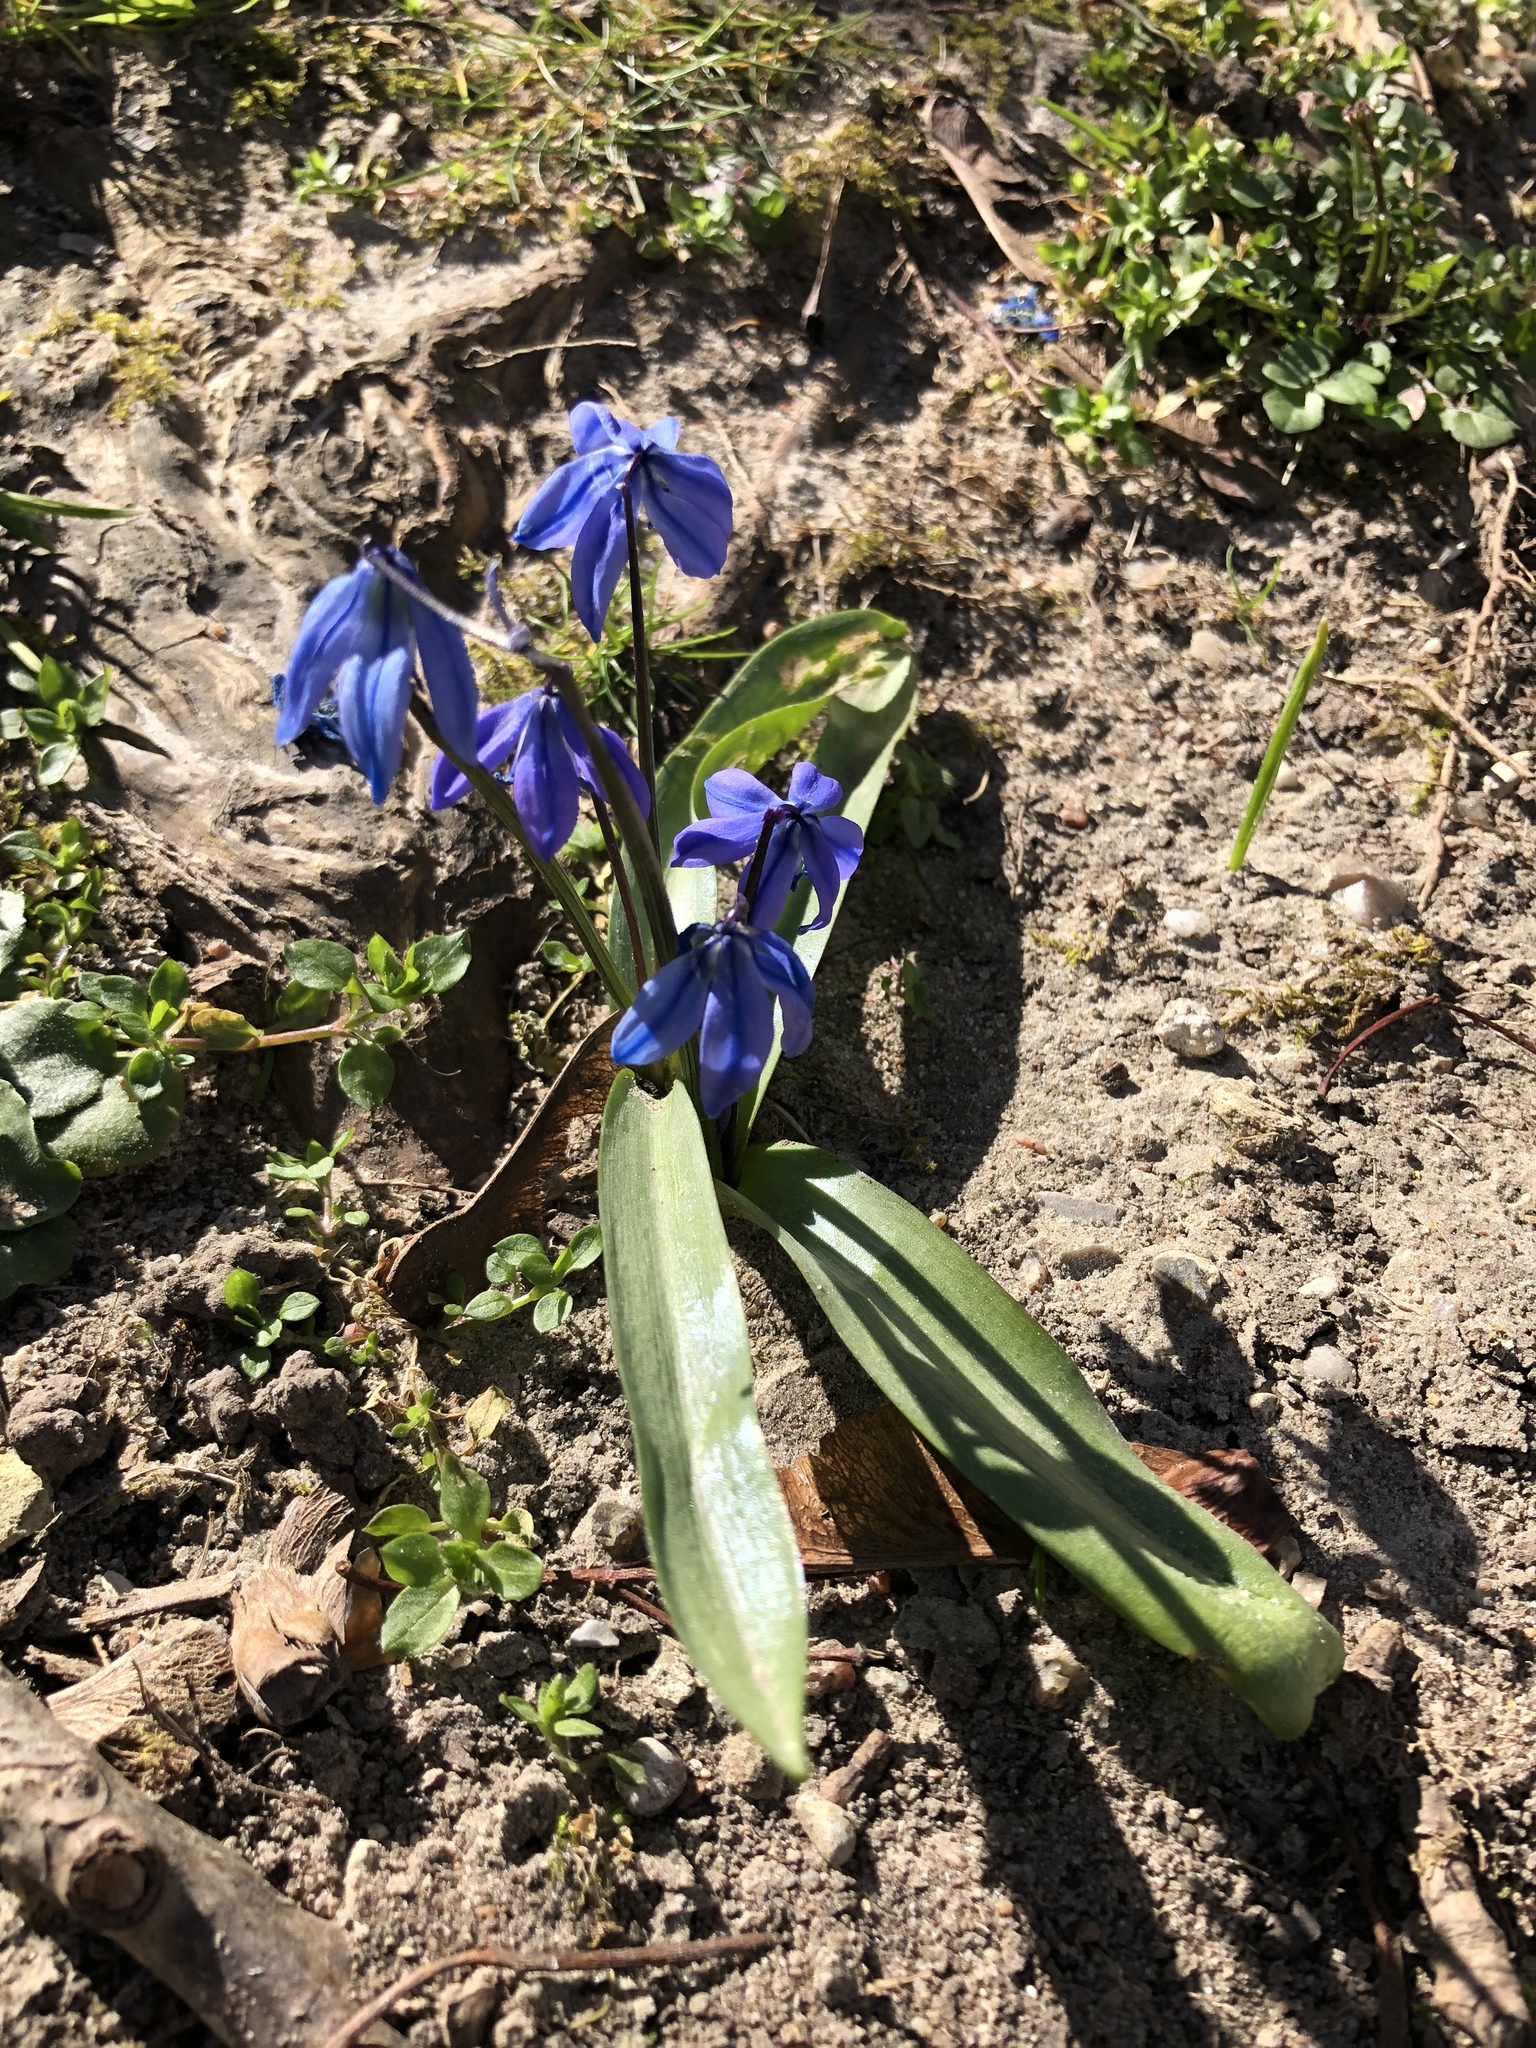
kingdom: Plantae
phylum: Tracheophyta
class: Liliopsida
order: Asparagales
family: Asparagaceae
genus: Scilla
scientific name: Scilla siberica
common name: Siberian squill
